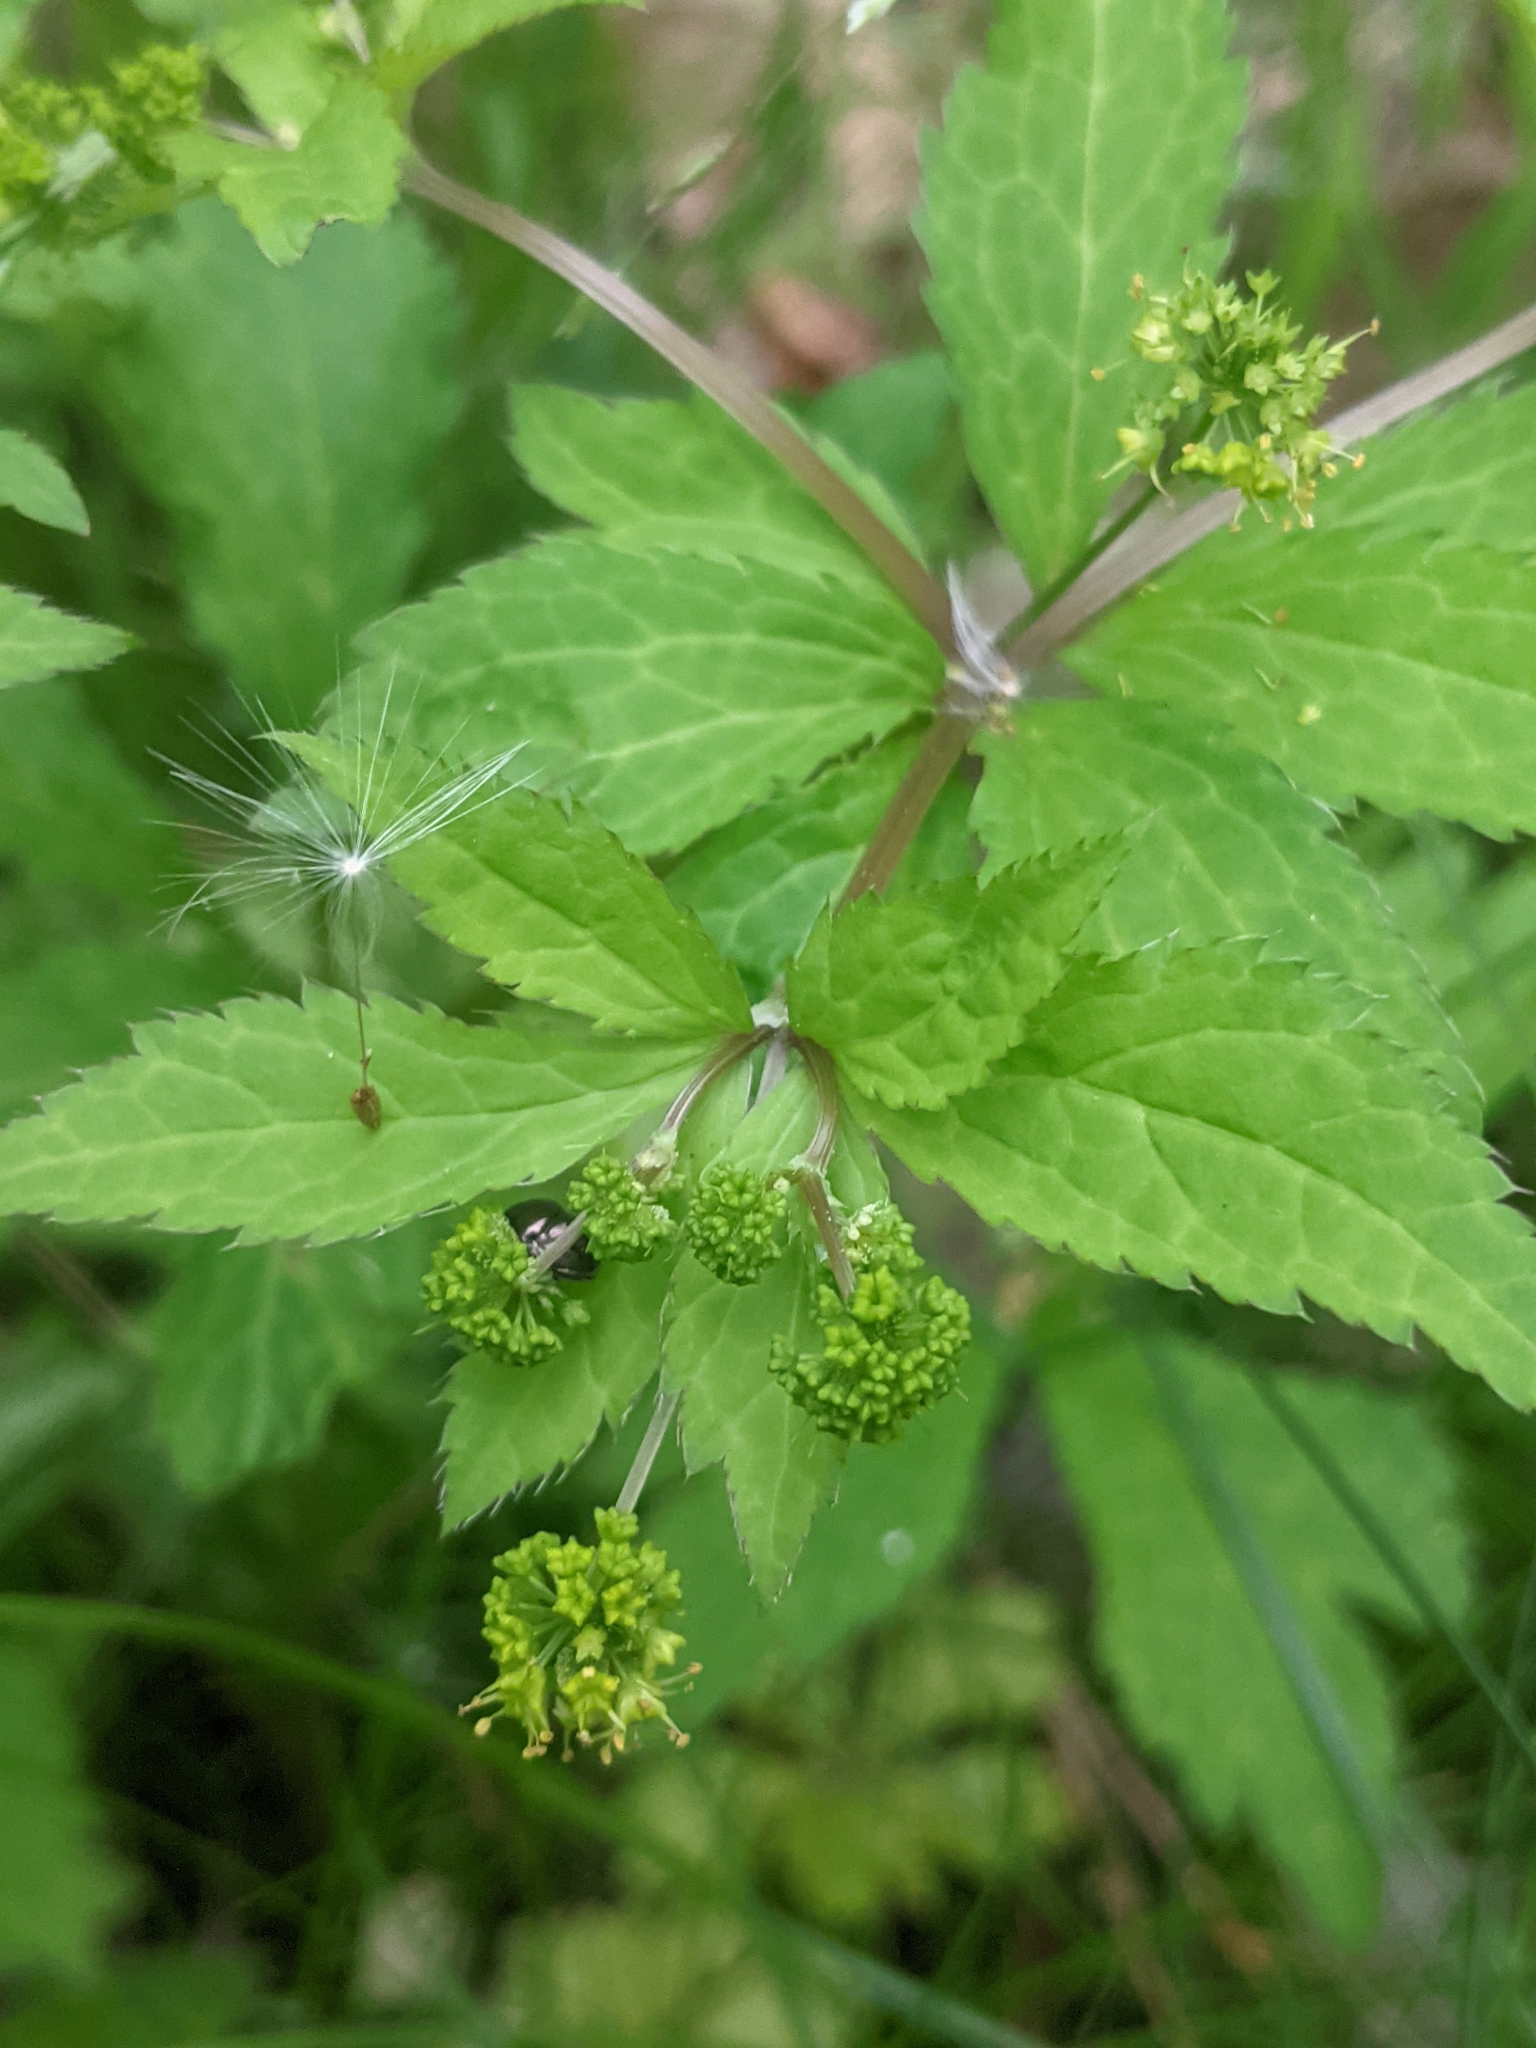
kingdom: Plantae
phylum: Tracheophyta
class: Magnoliopsida
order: Apiales
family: Apiaceae
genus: Sanicula
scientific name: Sanicula odorata
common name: Cluster sanicle
